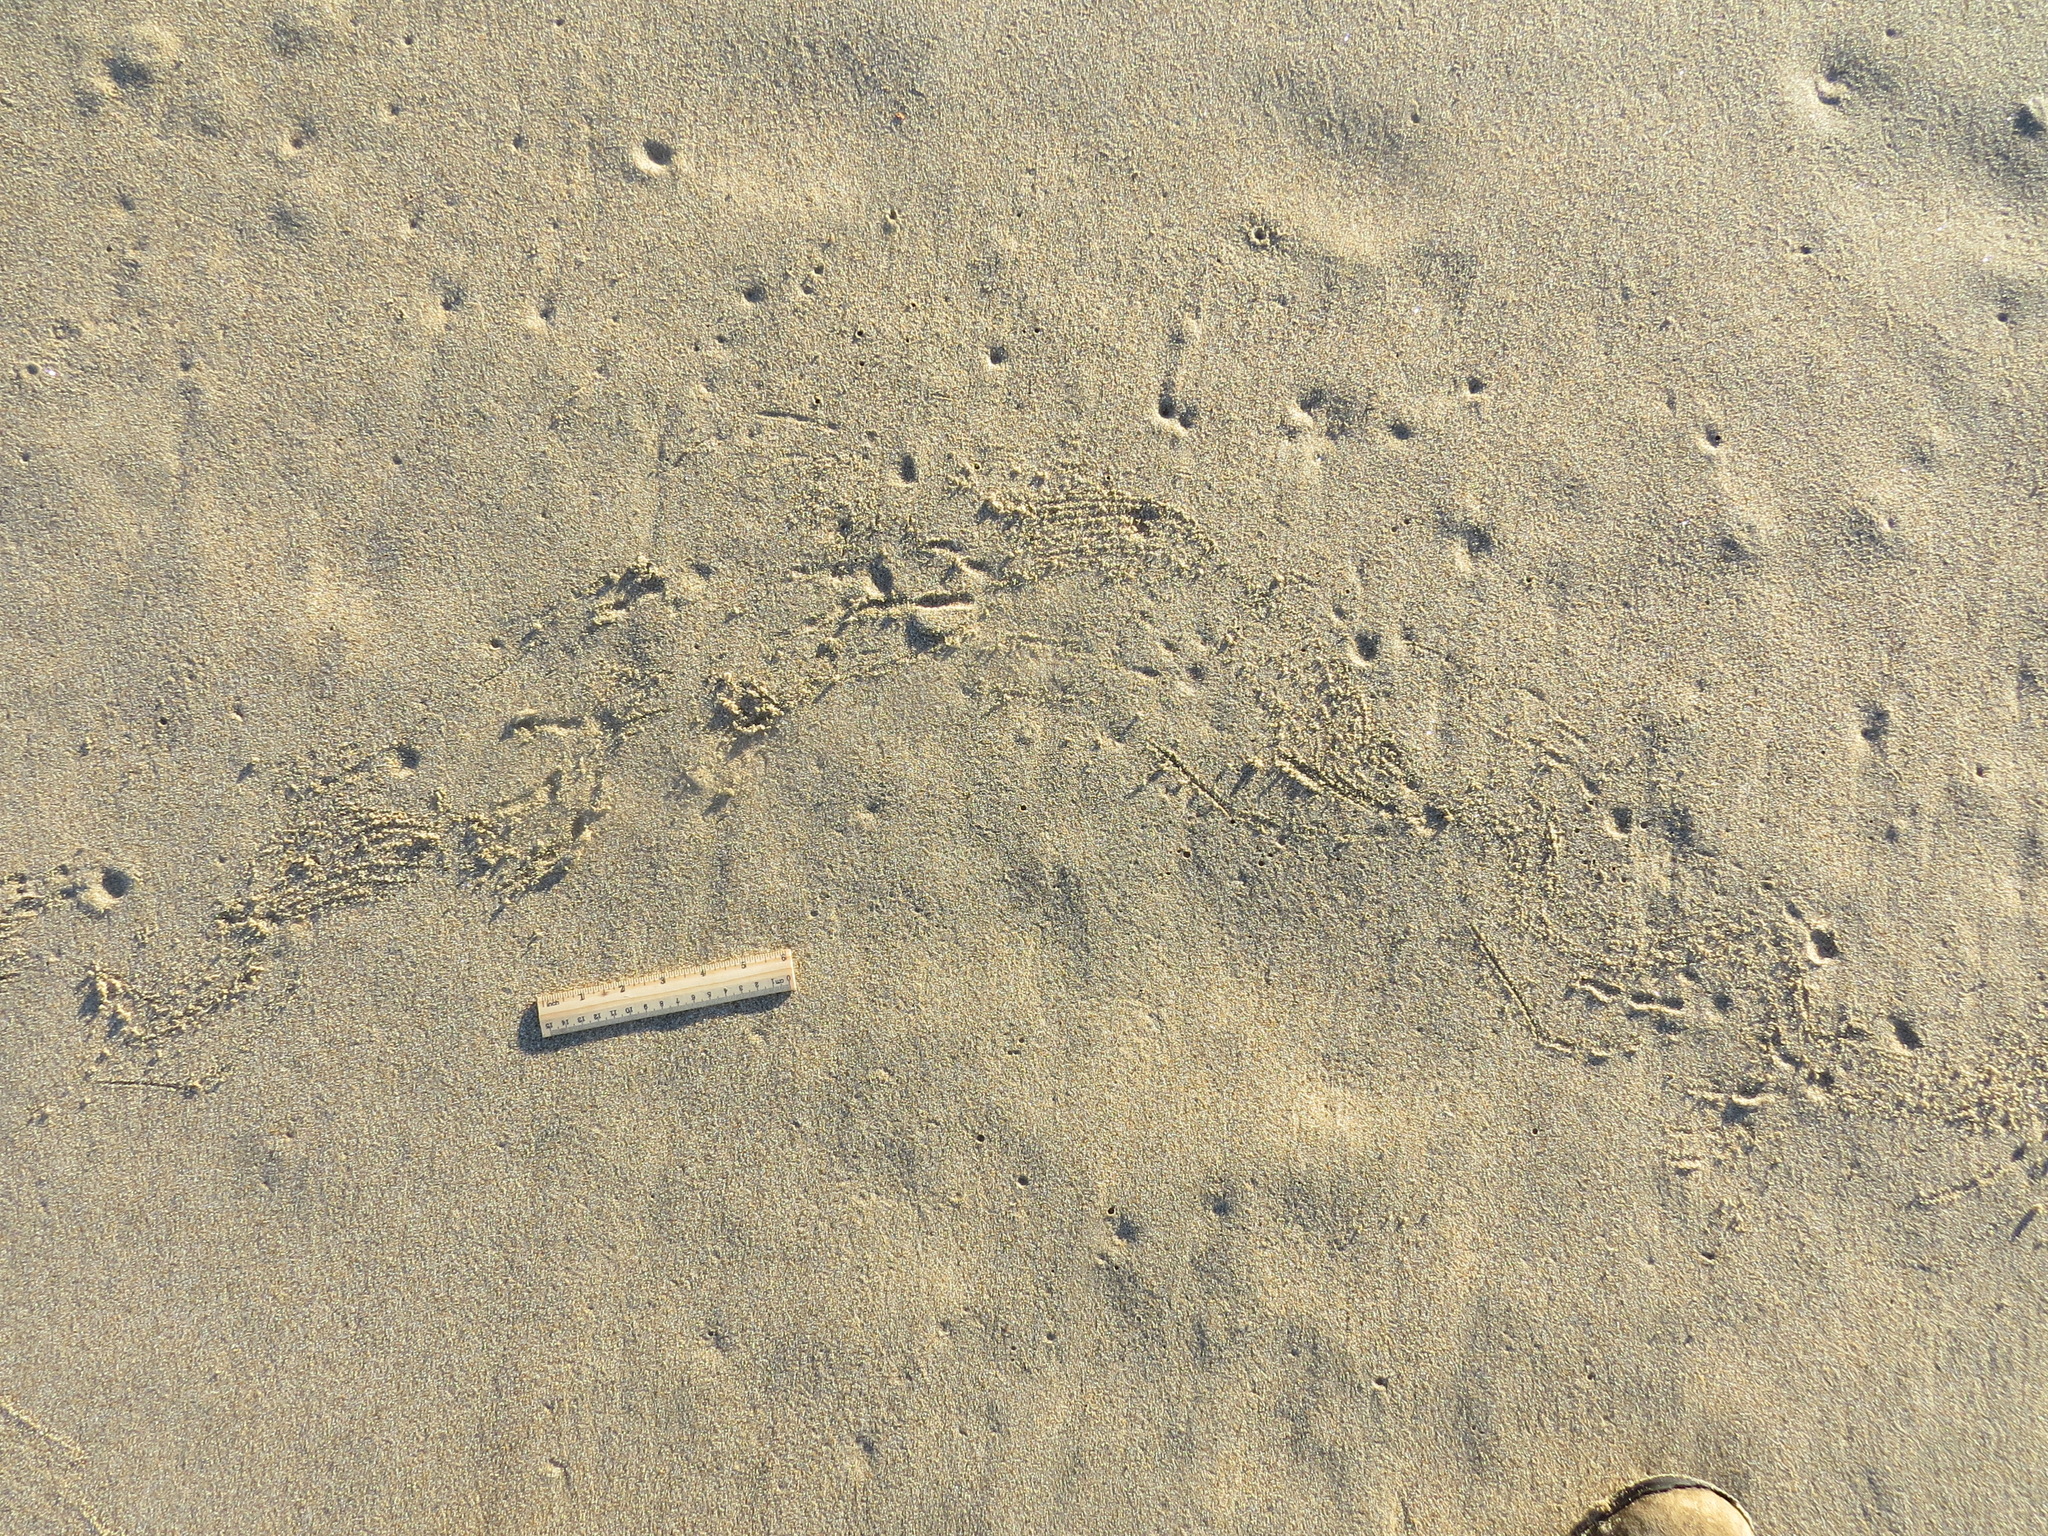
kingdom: Animalia
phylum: Chordata
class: Aves
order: Suliformes
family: Phalacrocoracidae
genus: Urile
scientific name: Urile penicillatus
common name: Brandt's cormorant
